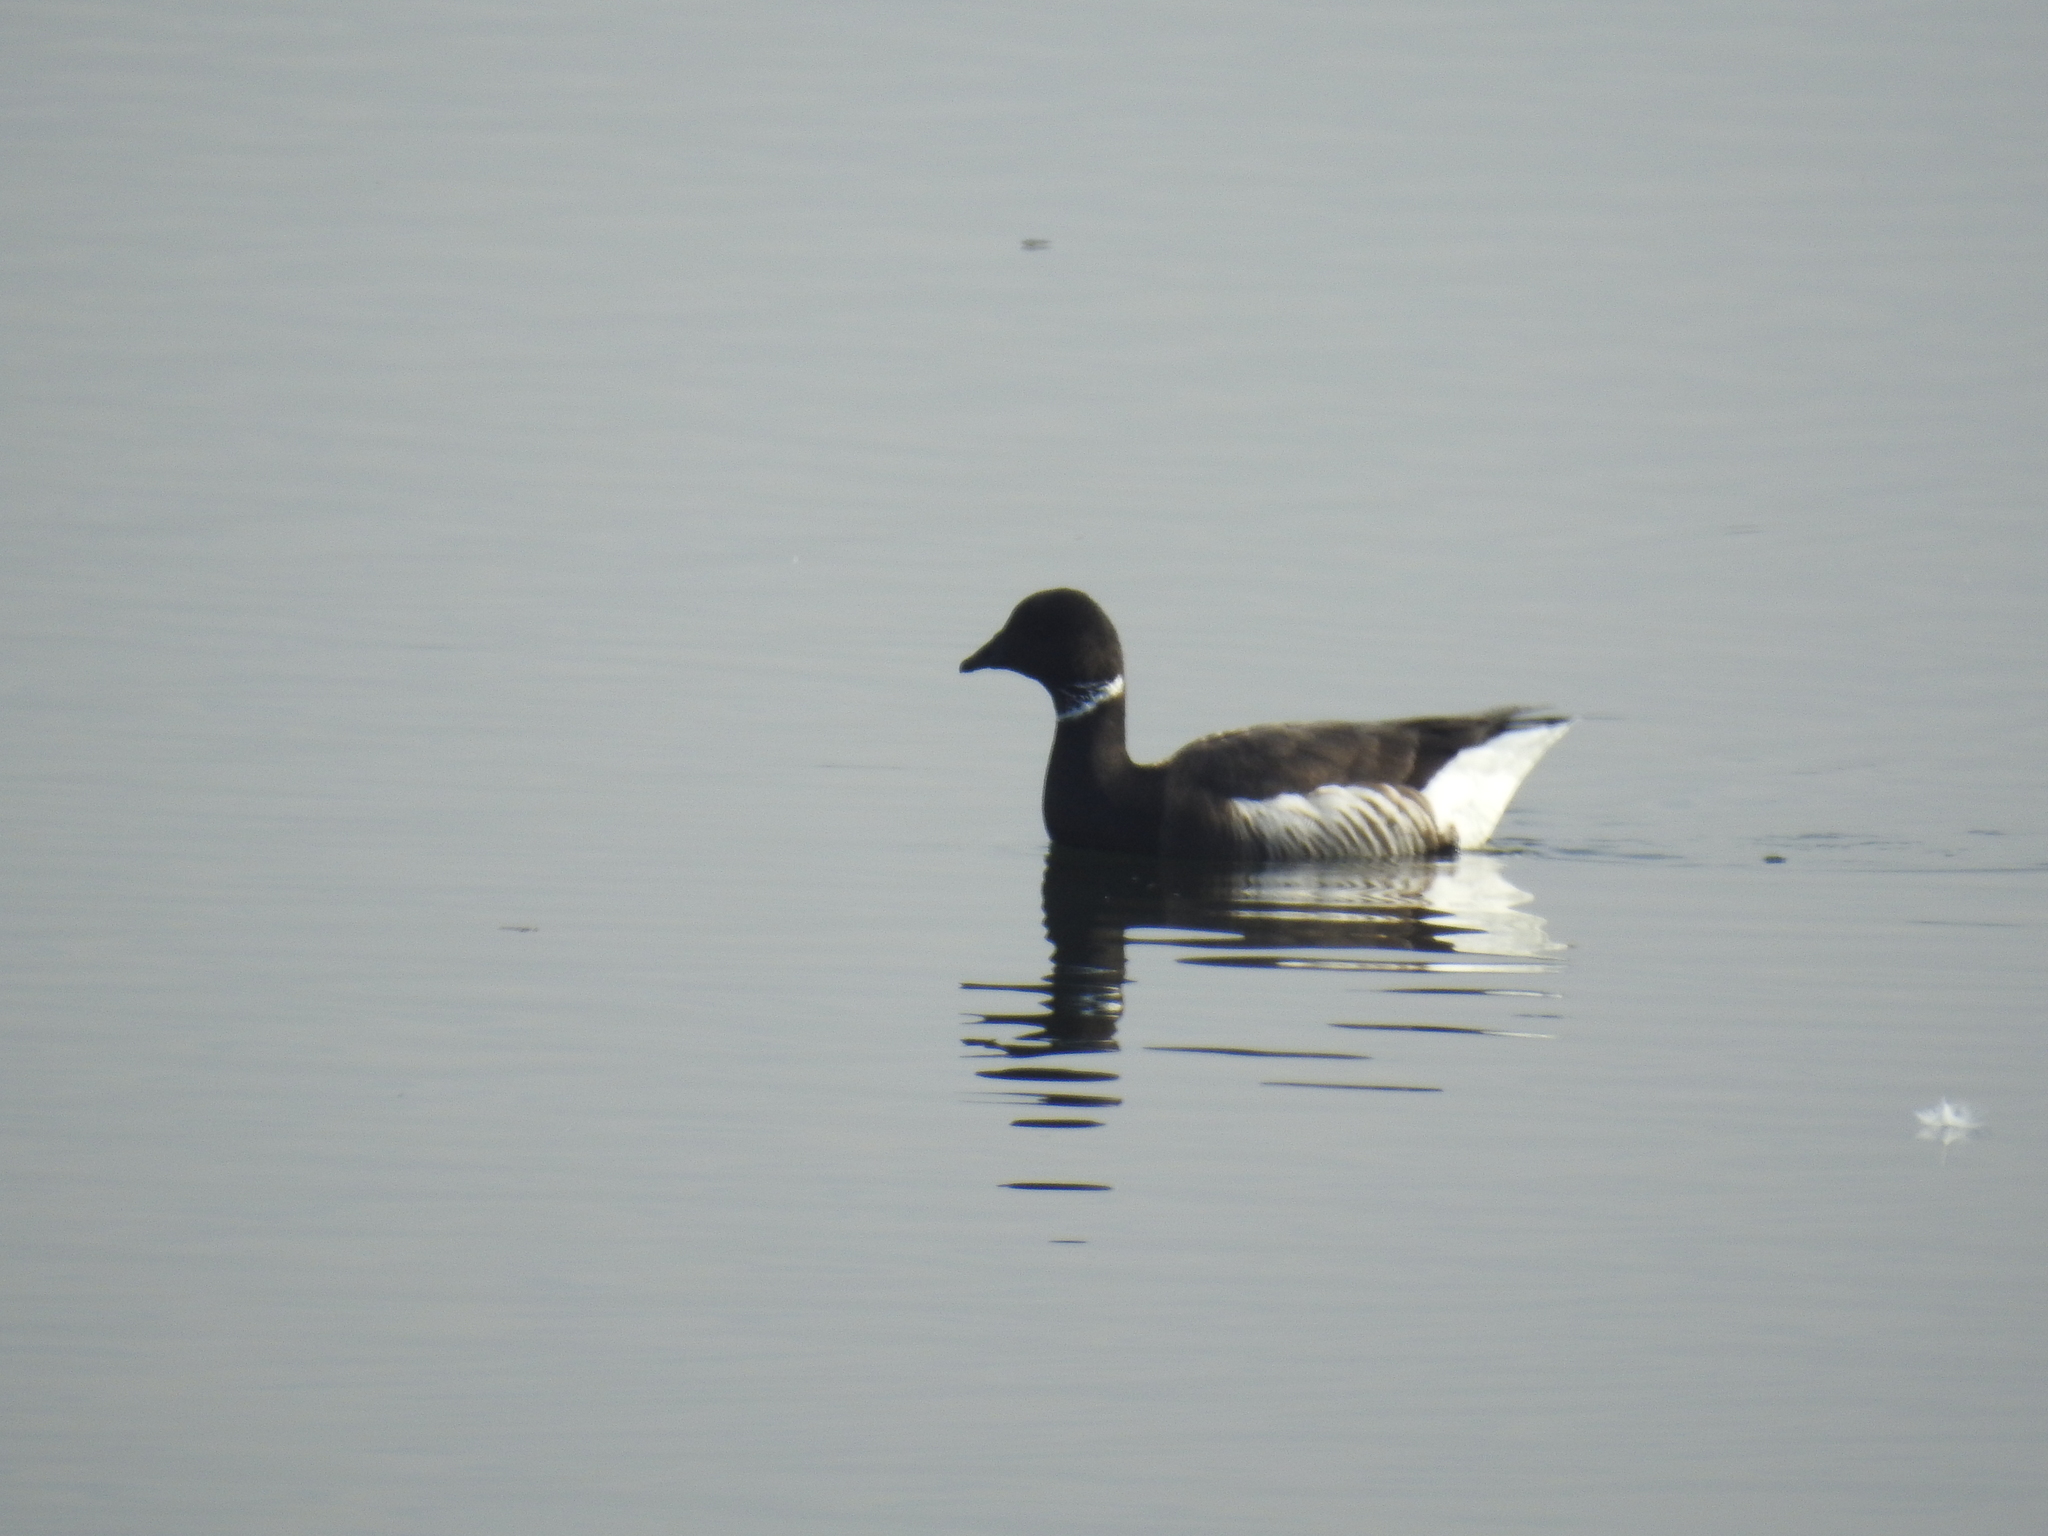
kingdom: Animalia
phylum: Chordata
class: Aves
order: Anseriformes
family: Anatidae
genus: Branta
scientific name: Branta bernicla
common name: Brant goose
